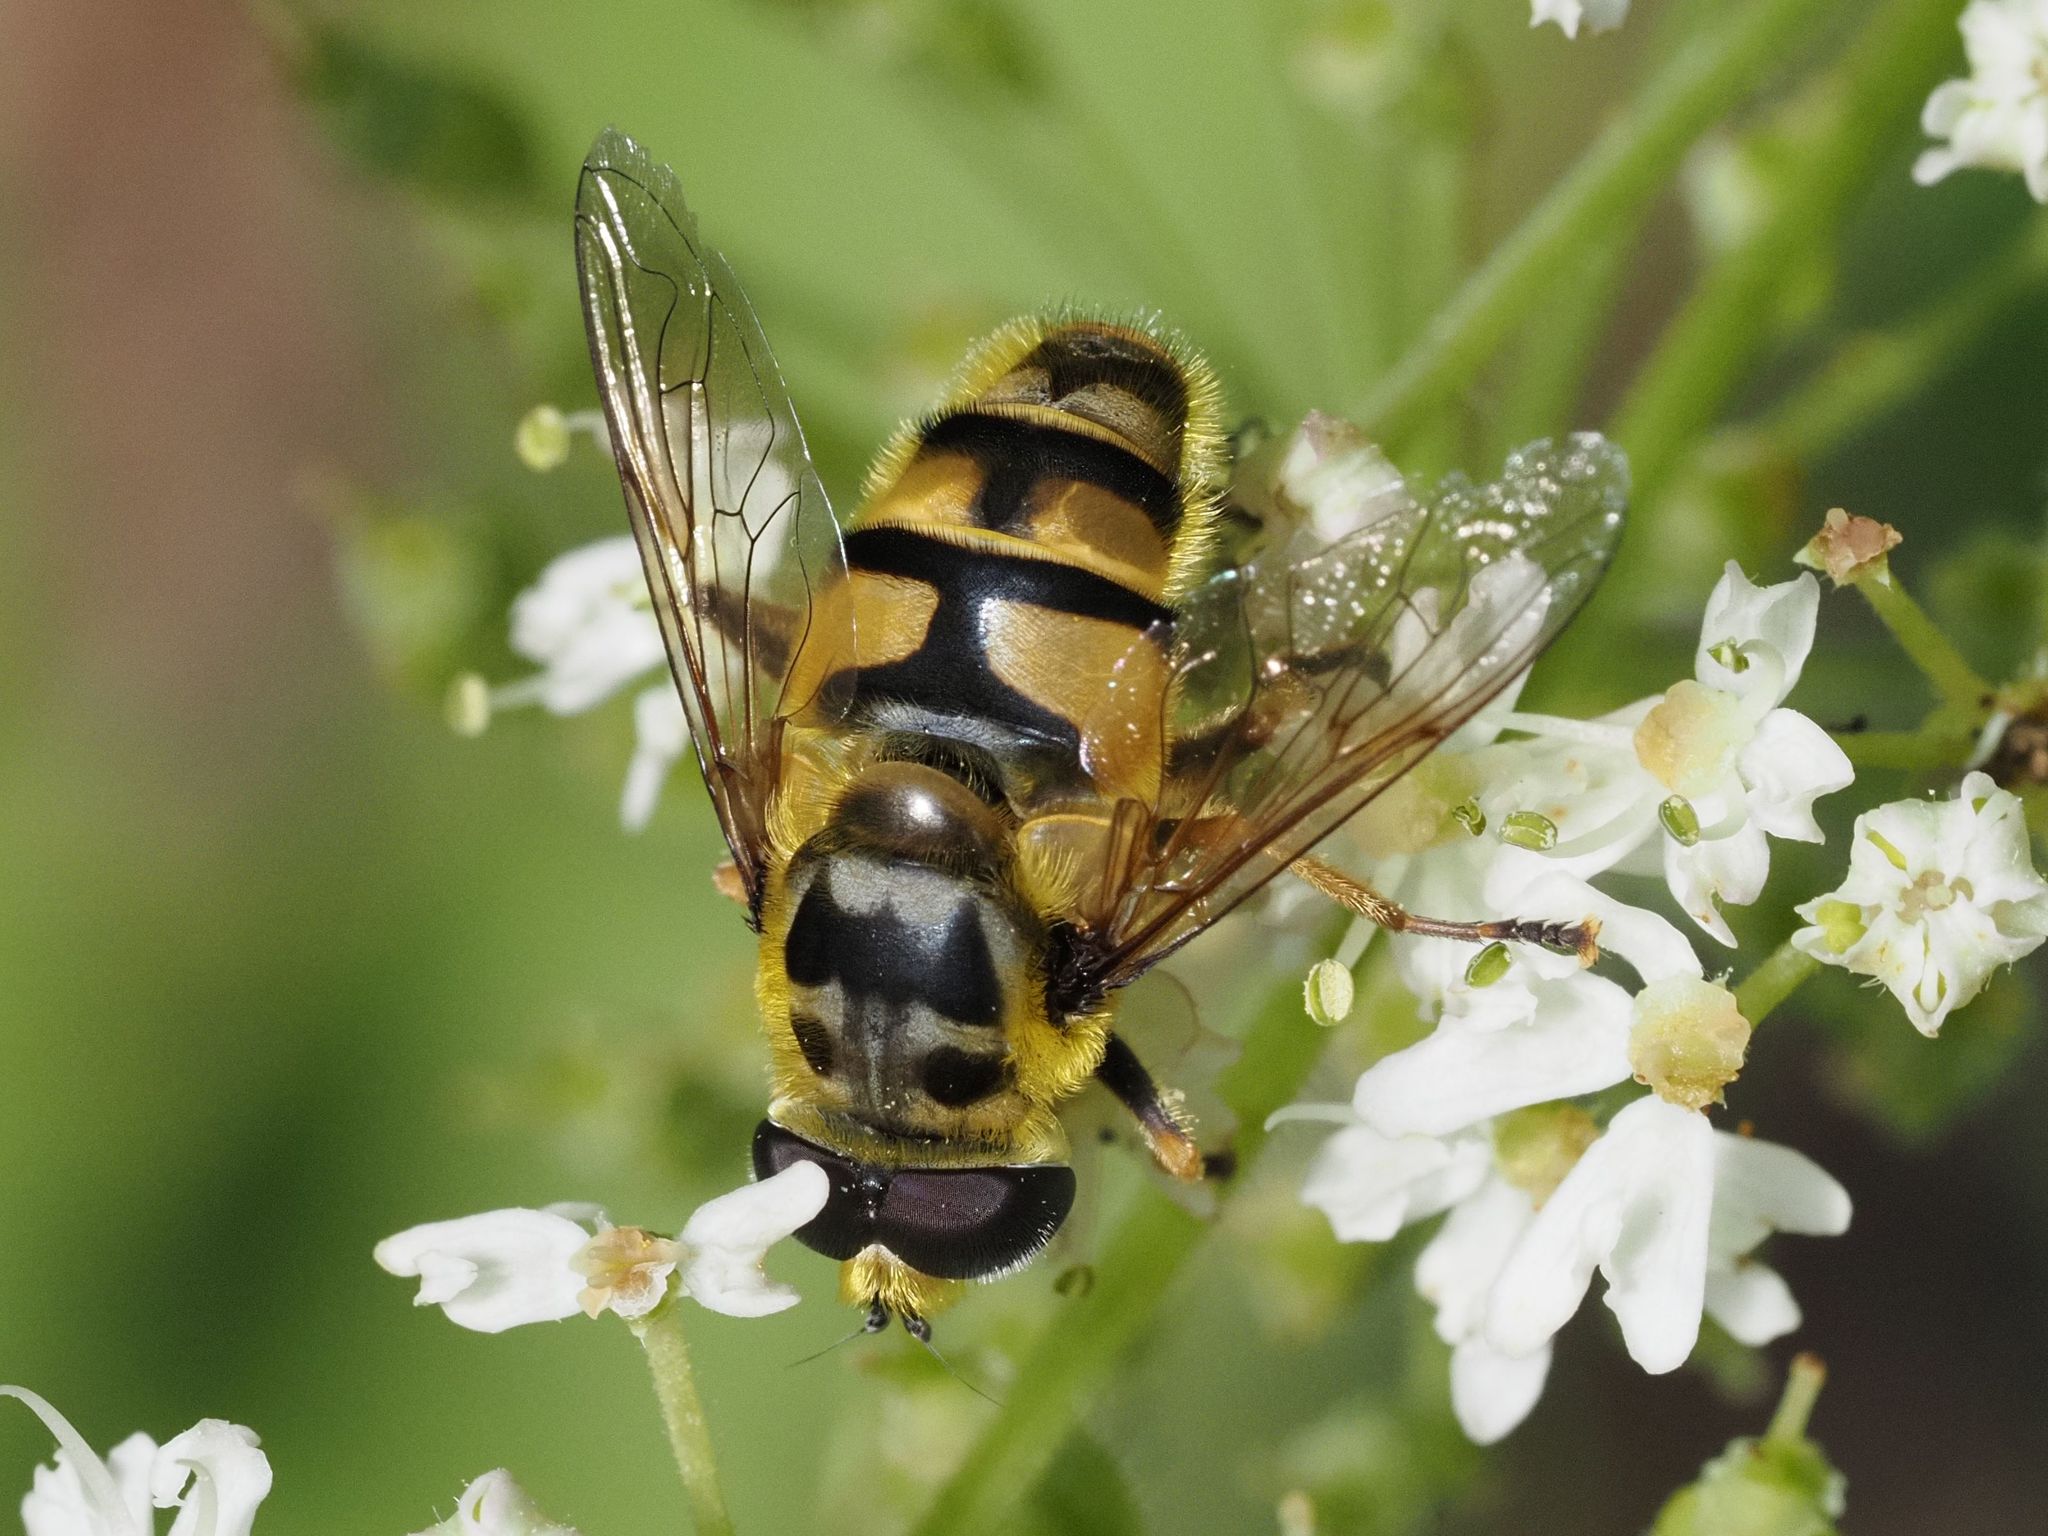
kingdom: Animalia
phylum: Arthropoda
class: Insecta
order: Diptera
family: Syrphidae
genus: Myathropa
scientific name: Myathropa florea
